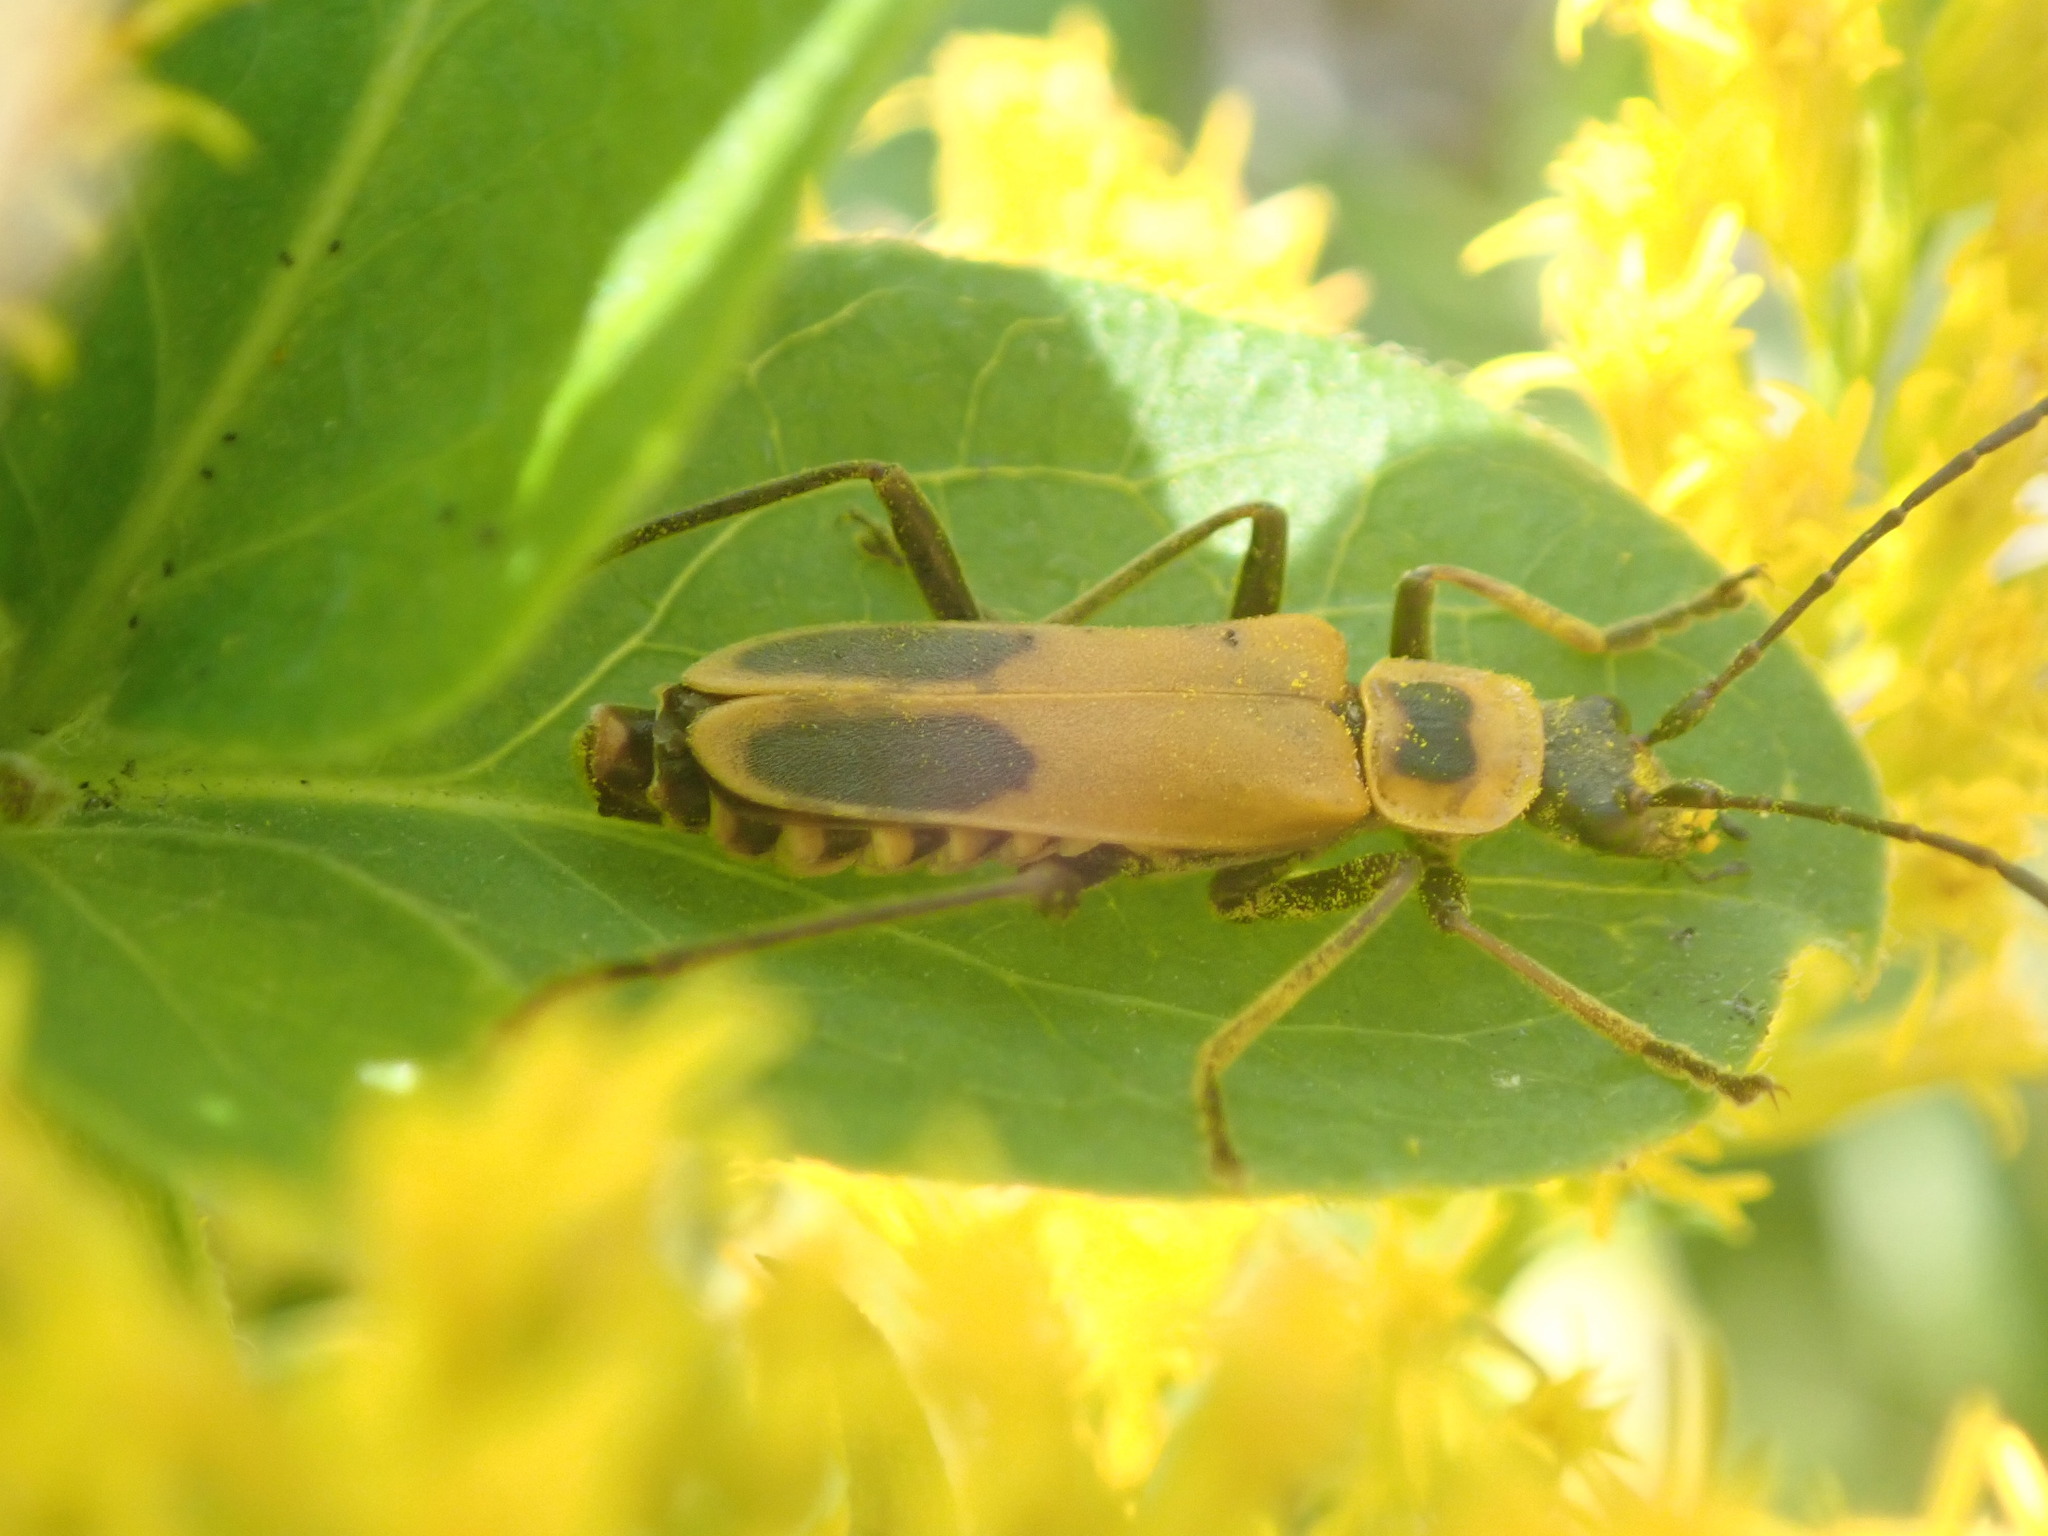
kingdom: Animalia
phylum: Arthropoda
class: Insecta
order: Coleoptera
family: Cantharidae
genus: Chauliognathus
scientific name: Chauliognathus pensylvanicus
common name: Goldenrod soldier beetle
